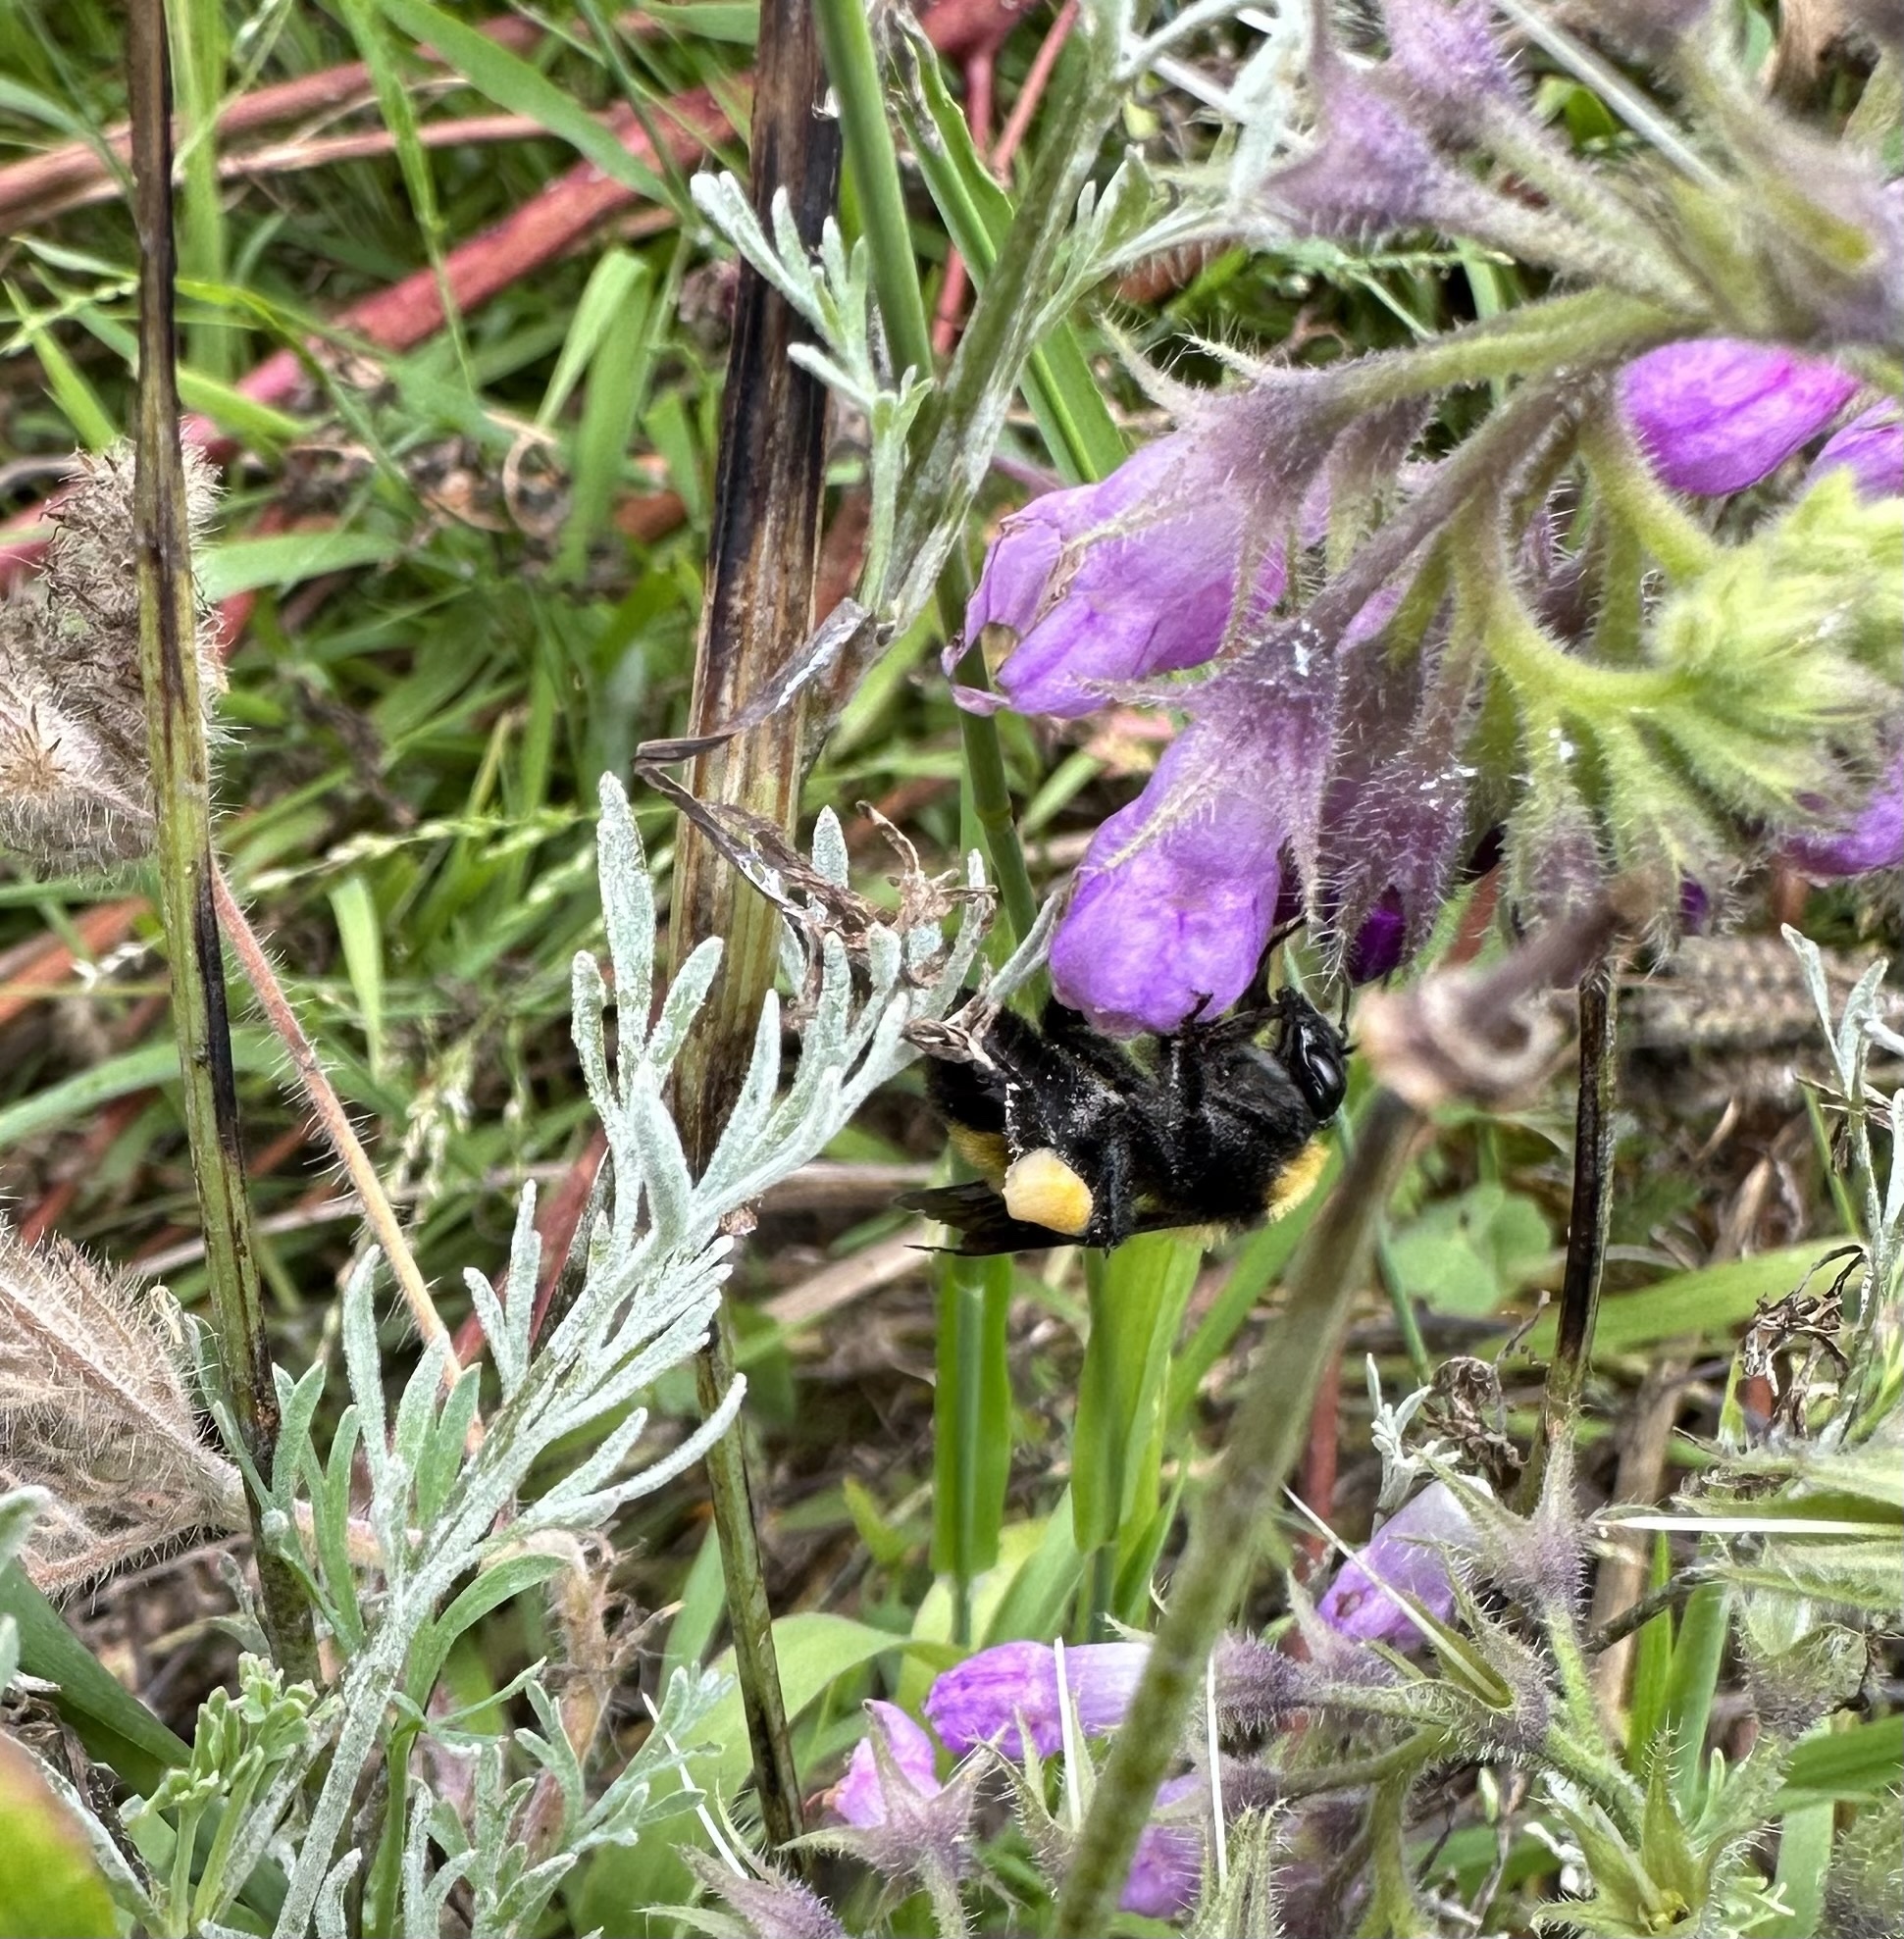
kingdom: Animalia
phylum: Arthropoda
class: Insecta
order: Hymenoptera
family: Apidae
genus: Bombus
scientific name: Bombus sonorus
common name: Sonoran bumble bee
